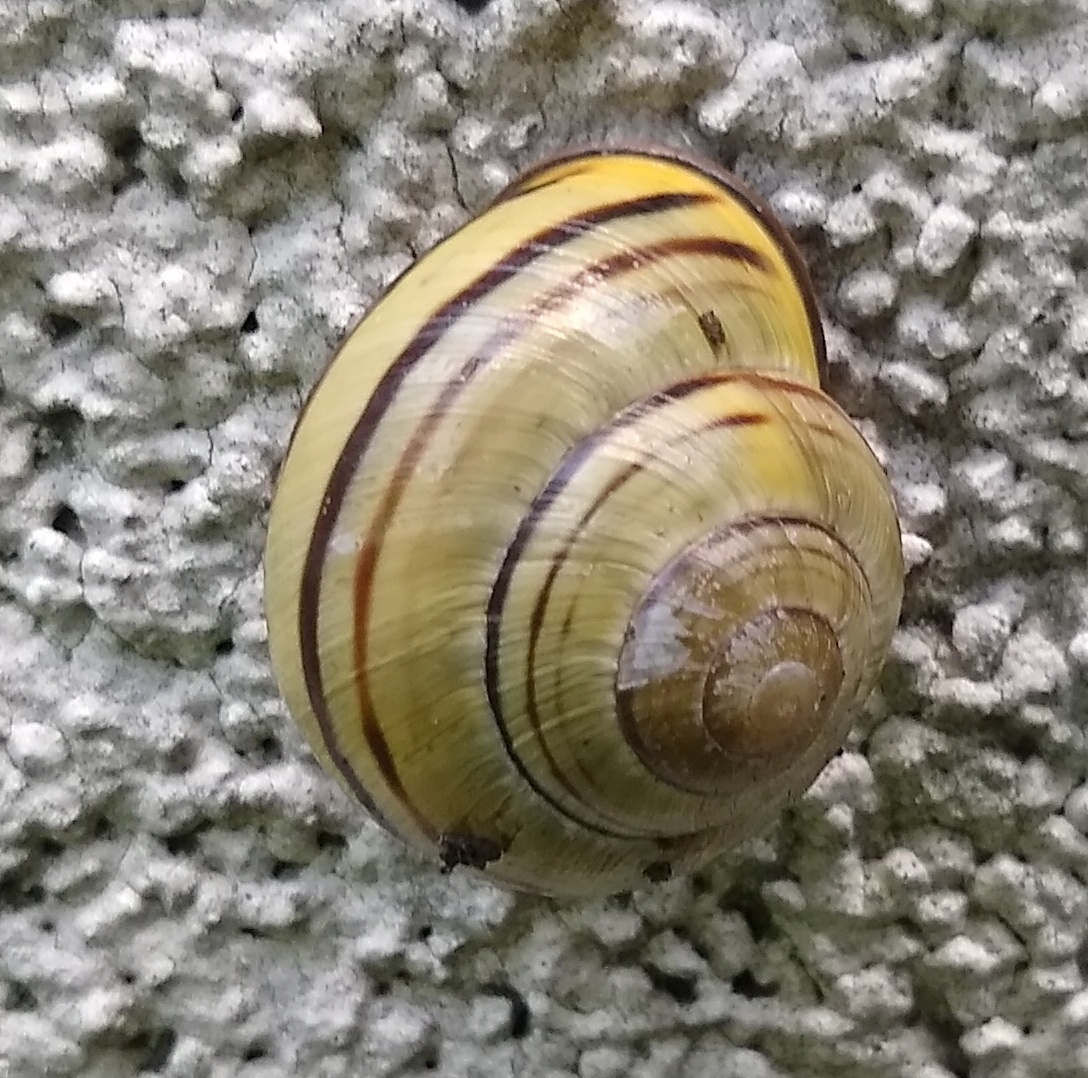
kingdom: Animalia
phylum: Mollusca
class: Gastropoda
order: Stylommatophora
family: Helicidae
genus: Cepaea
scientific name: Cepaea nemoralis
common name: Grovesnail
